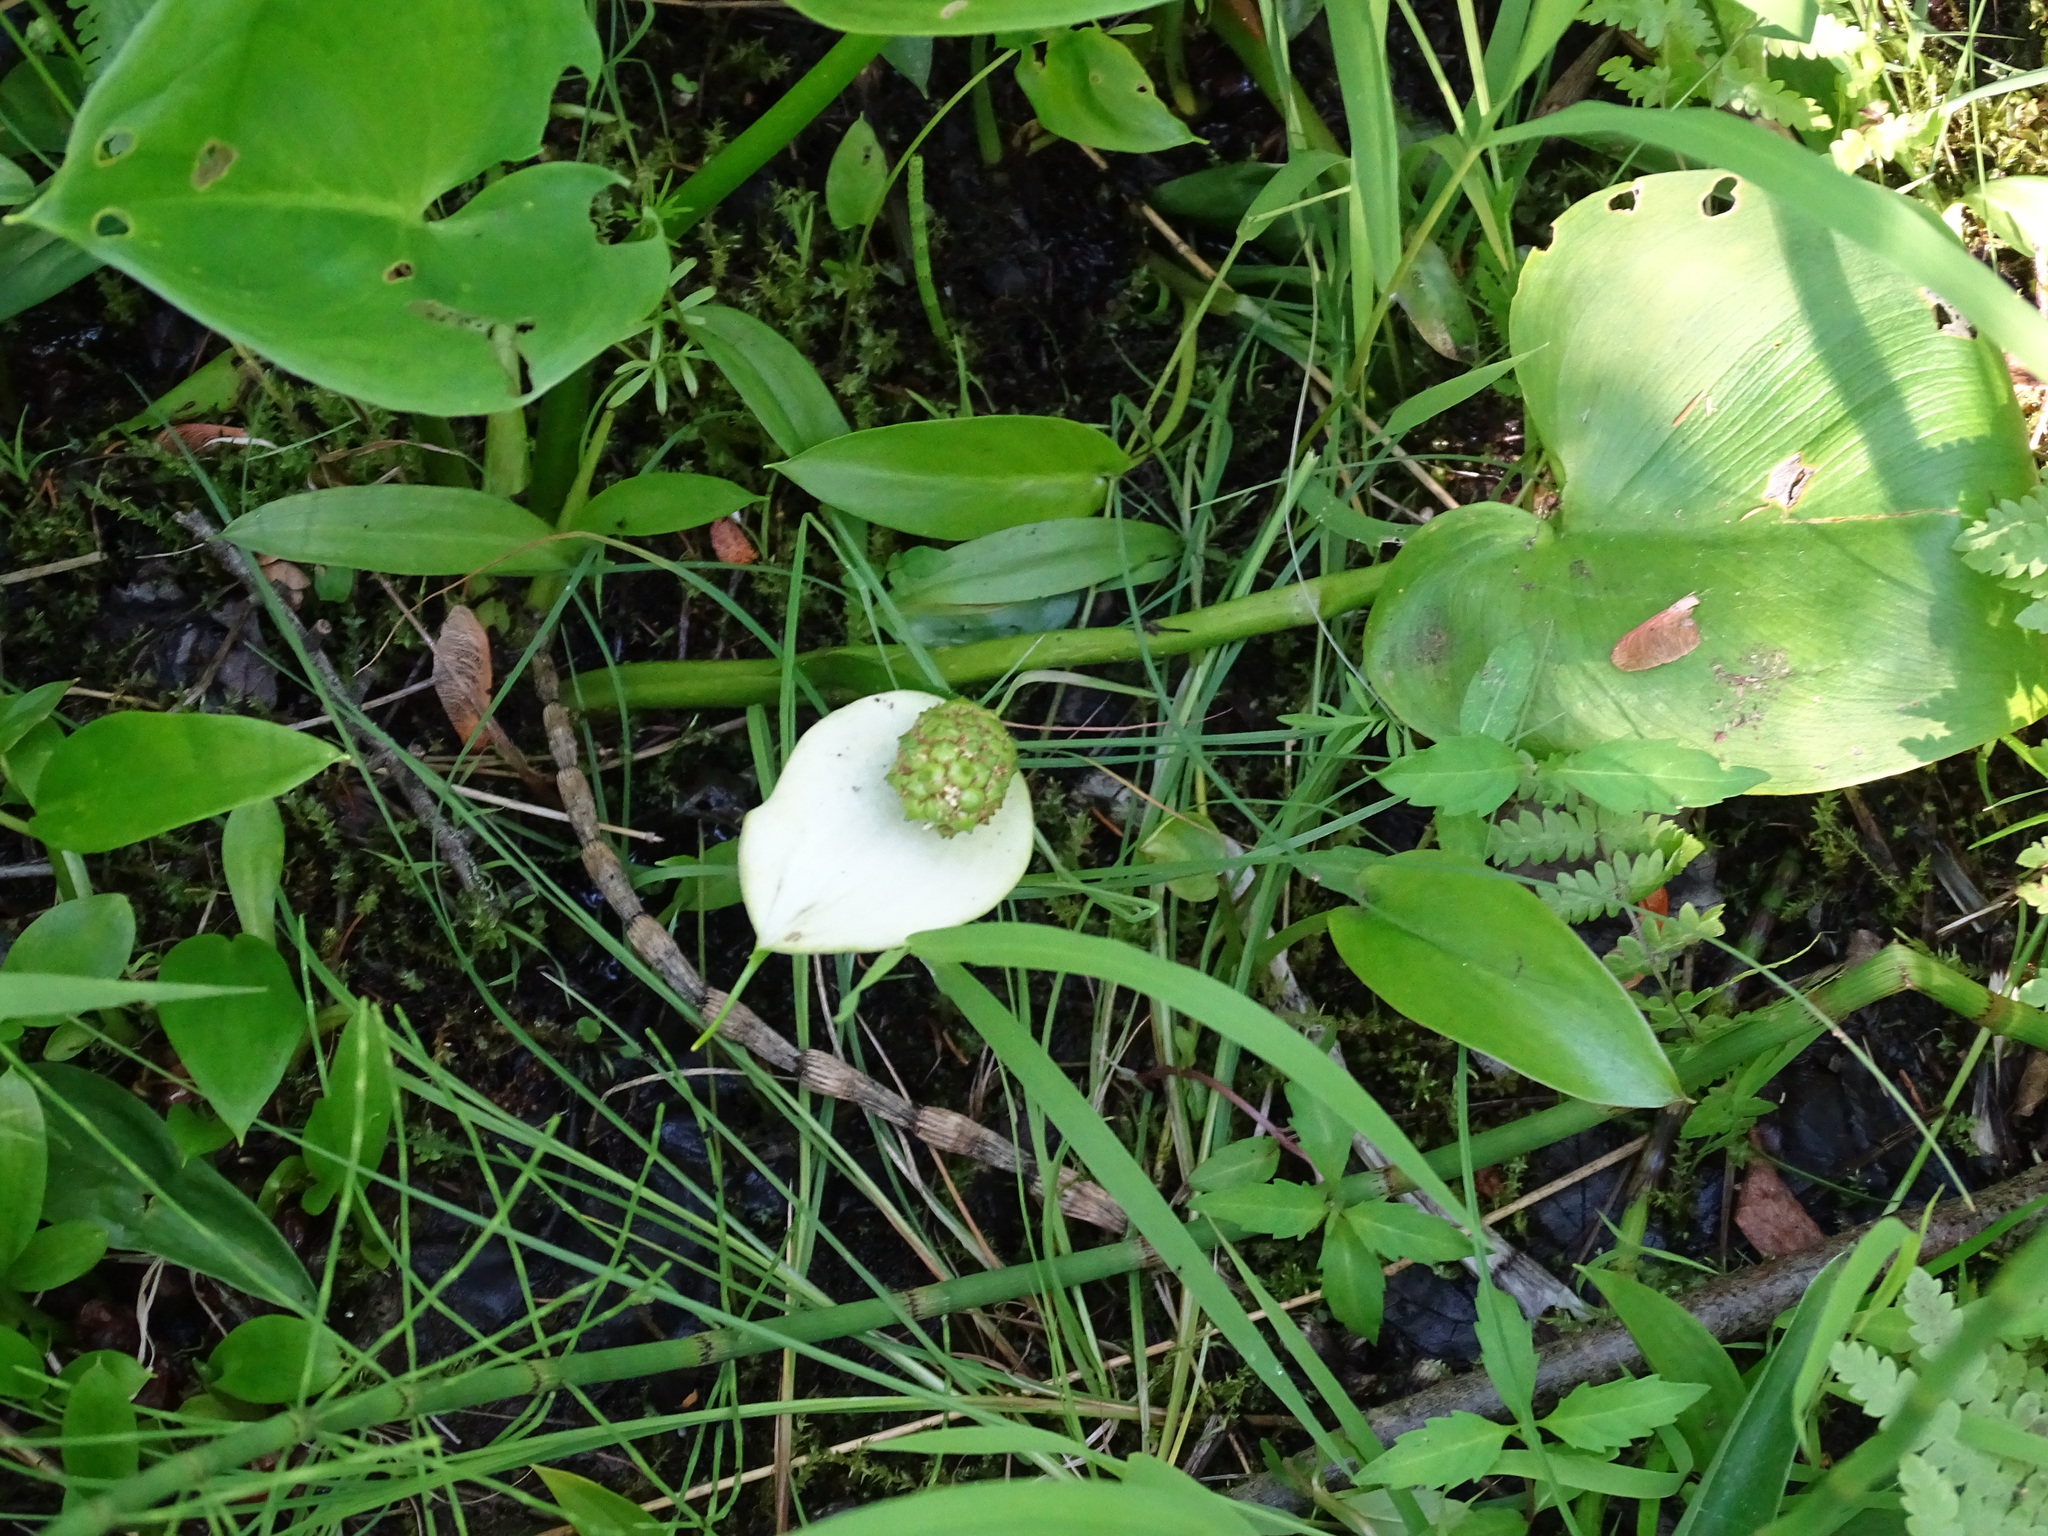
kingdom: Plantae
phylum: Tracheophyta
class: Liliopsida
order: Alismatales
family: Araceae
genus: Calla
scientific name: Calla palustris
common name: Bog arum
